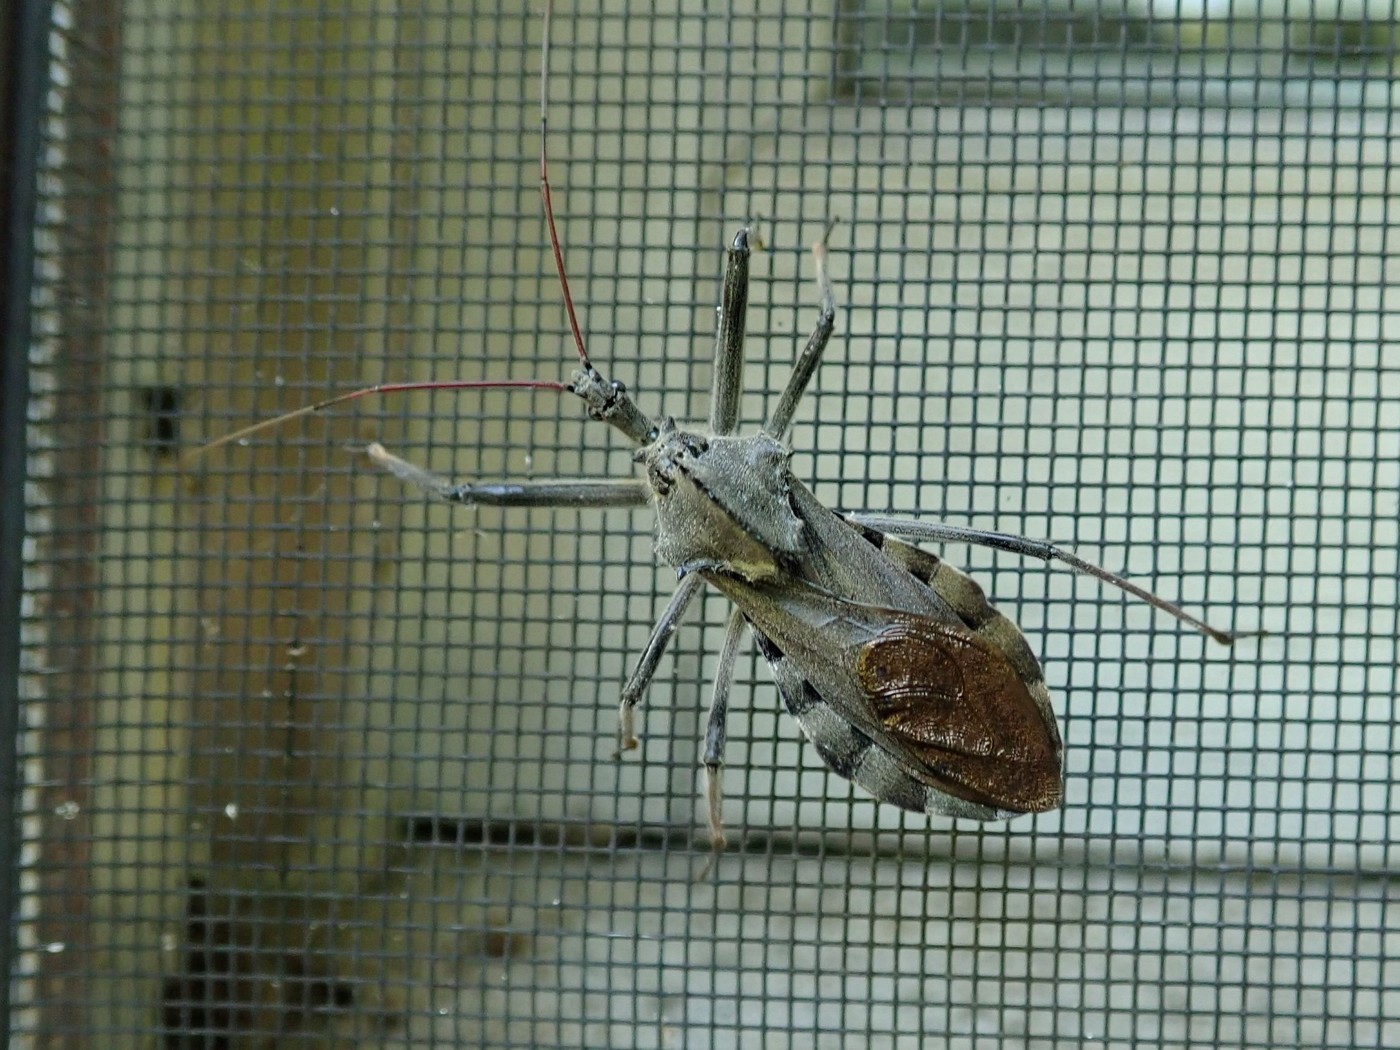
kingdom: Animalia
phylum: Arthropoda
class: Insecta
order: Hemiptera
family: Reduviidae
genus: Arilus
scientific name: Arilus cristatus
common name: North american wheel bug
